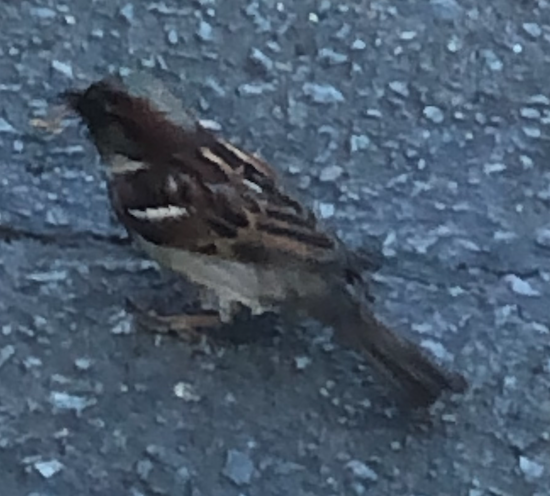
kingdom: Animalia
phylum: Chordata
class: Aves
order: Passeriformes
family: Passeridae
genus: Passer
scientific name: Passer domesticus
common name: House sparrow
